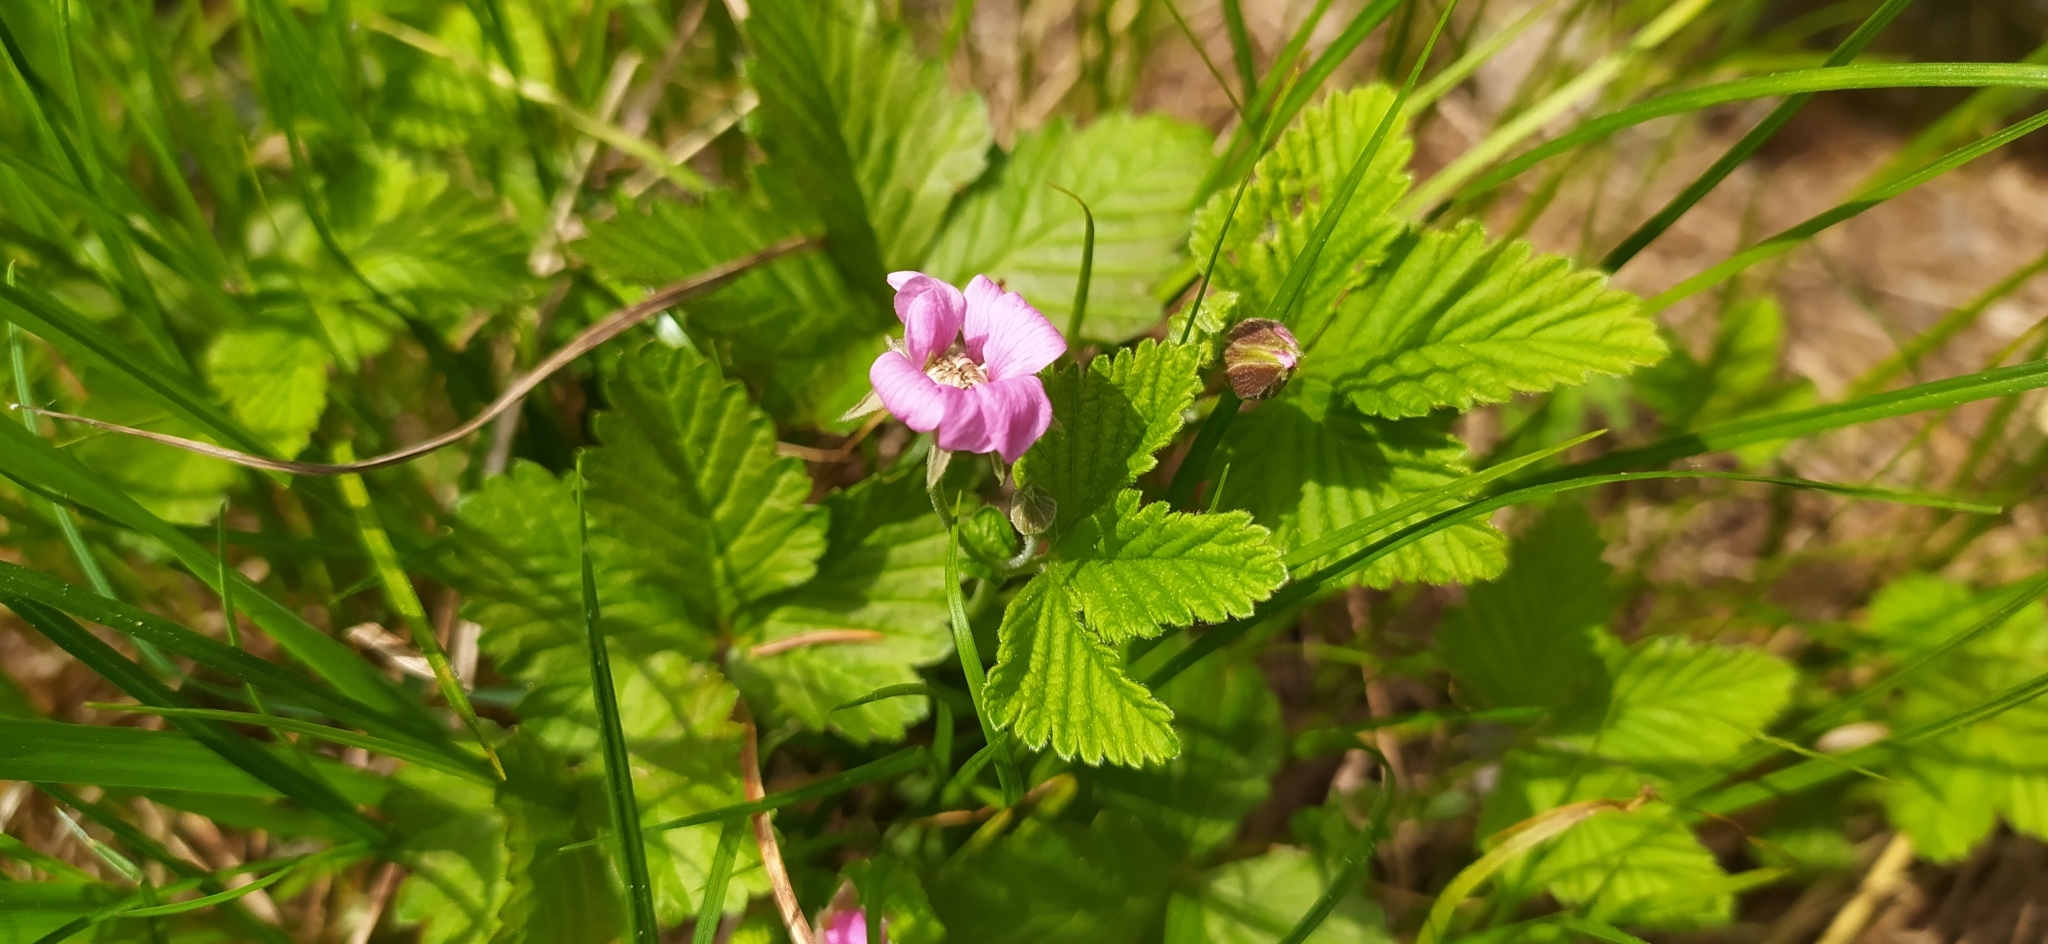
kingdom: Plantae
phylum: Tracheophyta
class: Magnoliopsida
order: Rosales
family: Rosaceae
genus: Rubus
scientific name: Rubus arcticus
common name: Arctic bramble
